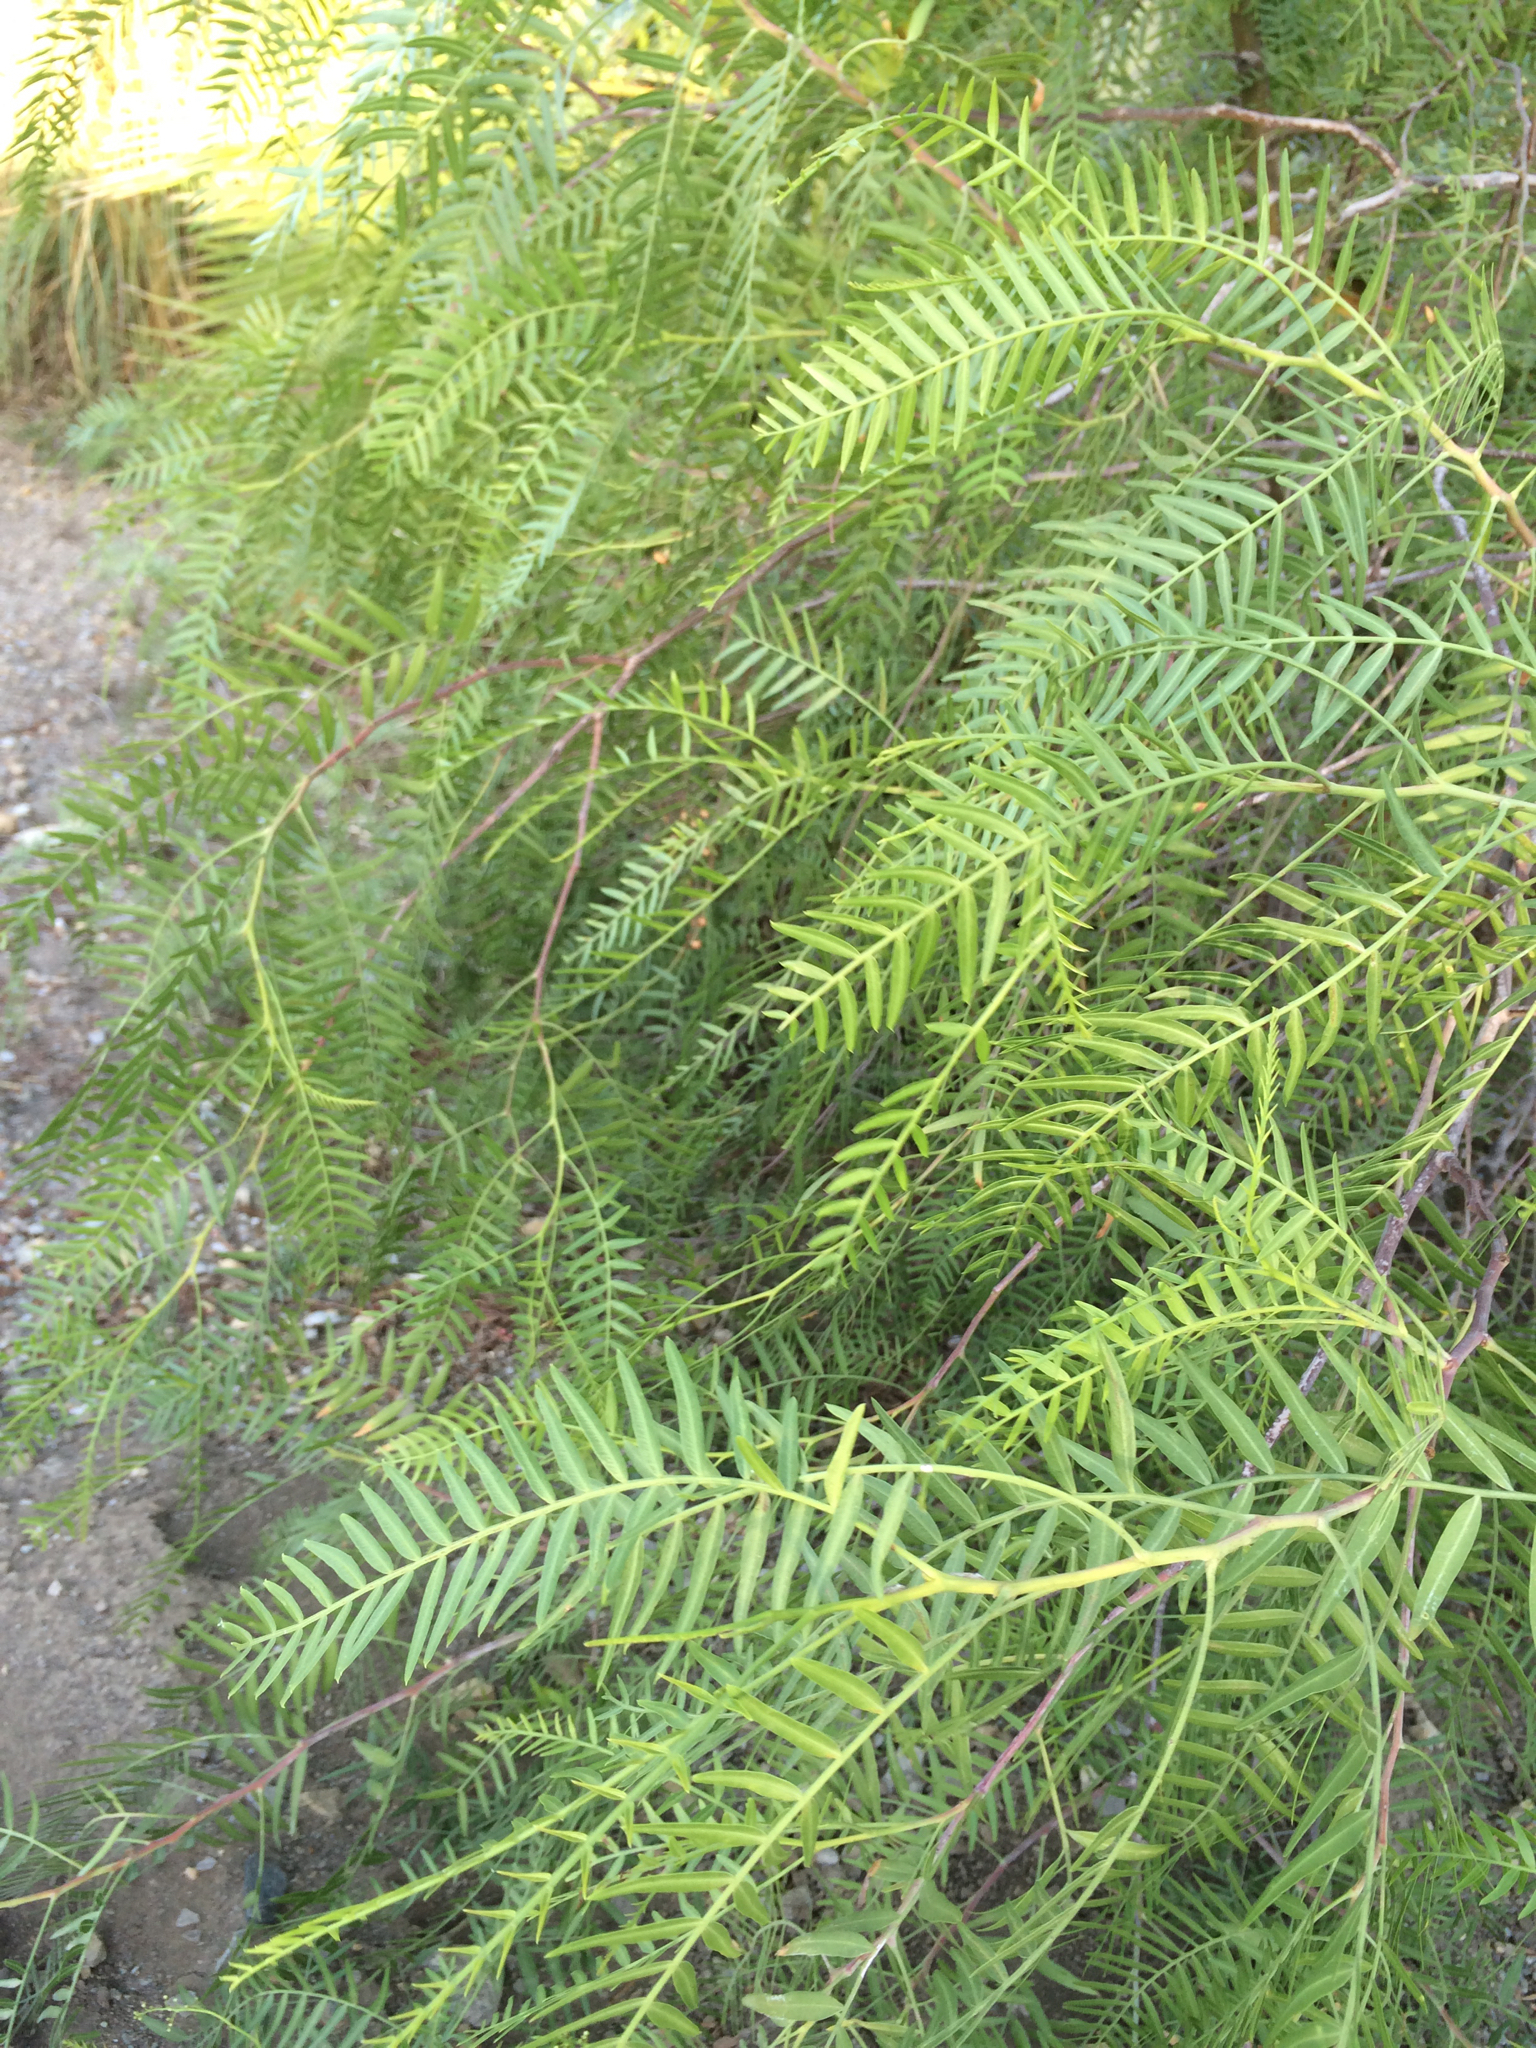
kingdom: Plantae
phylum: Tracheophyta
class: Magnoliopsida
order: Sapindales
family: Anacardiaceae
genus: Schinus
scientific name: Schinus molle
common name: Peruvian peppertree
